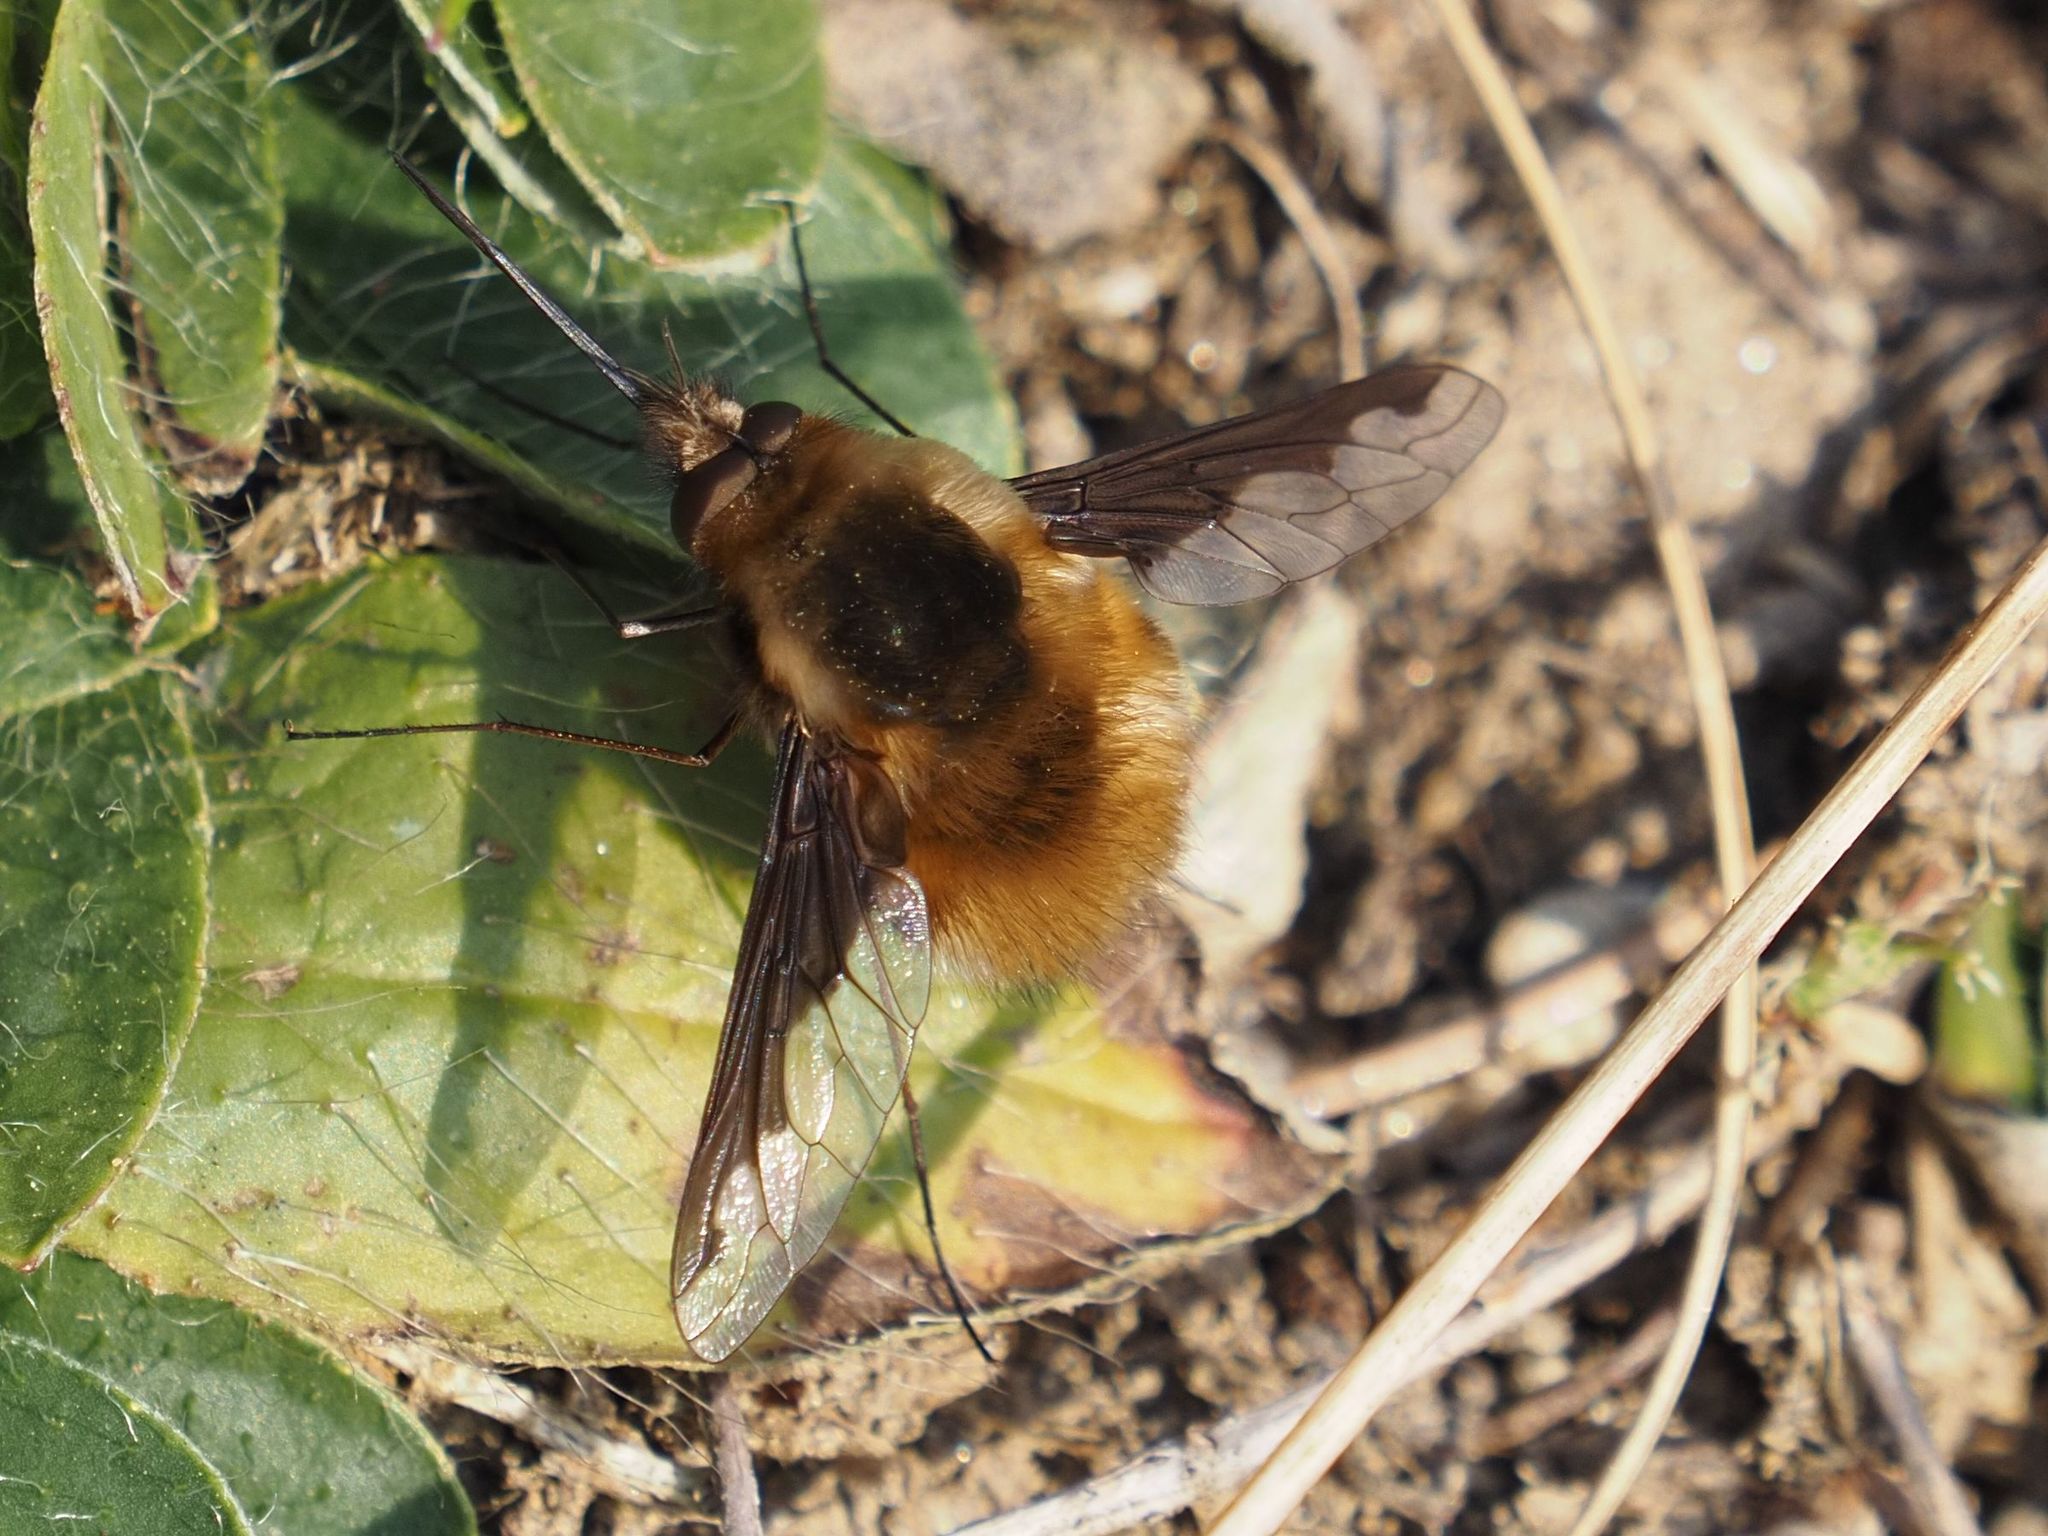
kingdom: Animalia
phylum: Arthropoda
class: Insecta
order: Diptera
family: Bombyliidae
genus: Bombylius
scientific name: Bombylius major
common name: Bee fly
